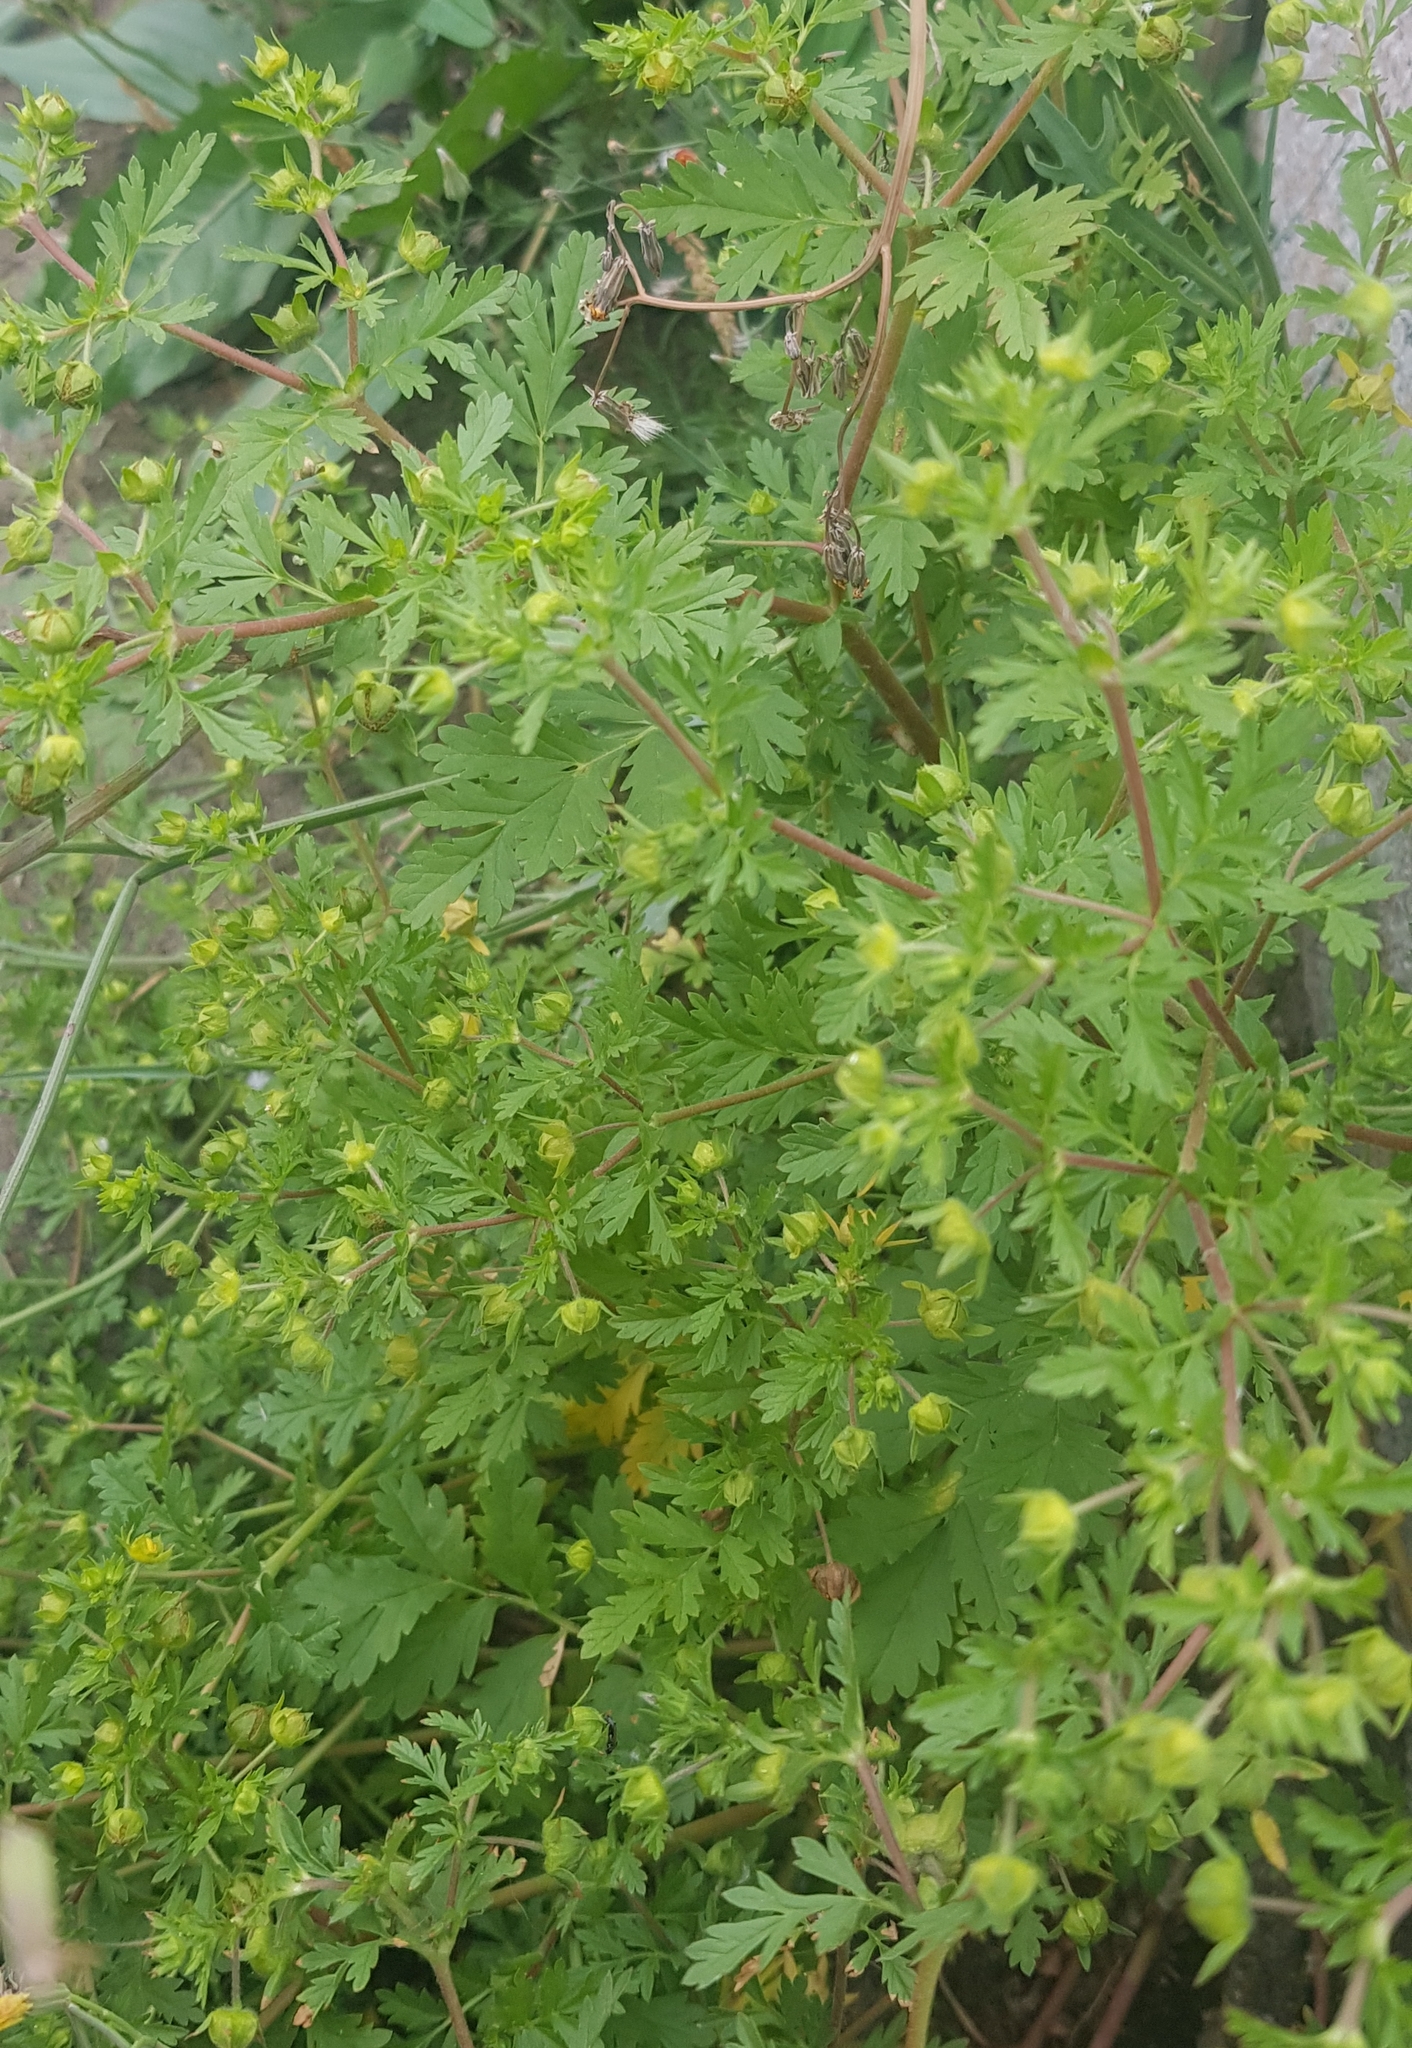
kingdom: Plantae
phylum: Tracheophyta
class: Magnoliopsida
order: Rosales
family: Rosaceae
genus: Potentilla
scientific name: Potentilla supina
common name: Prostrate cinquefoil
